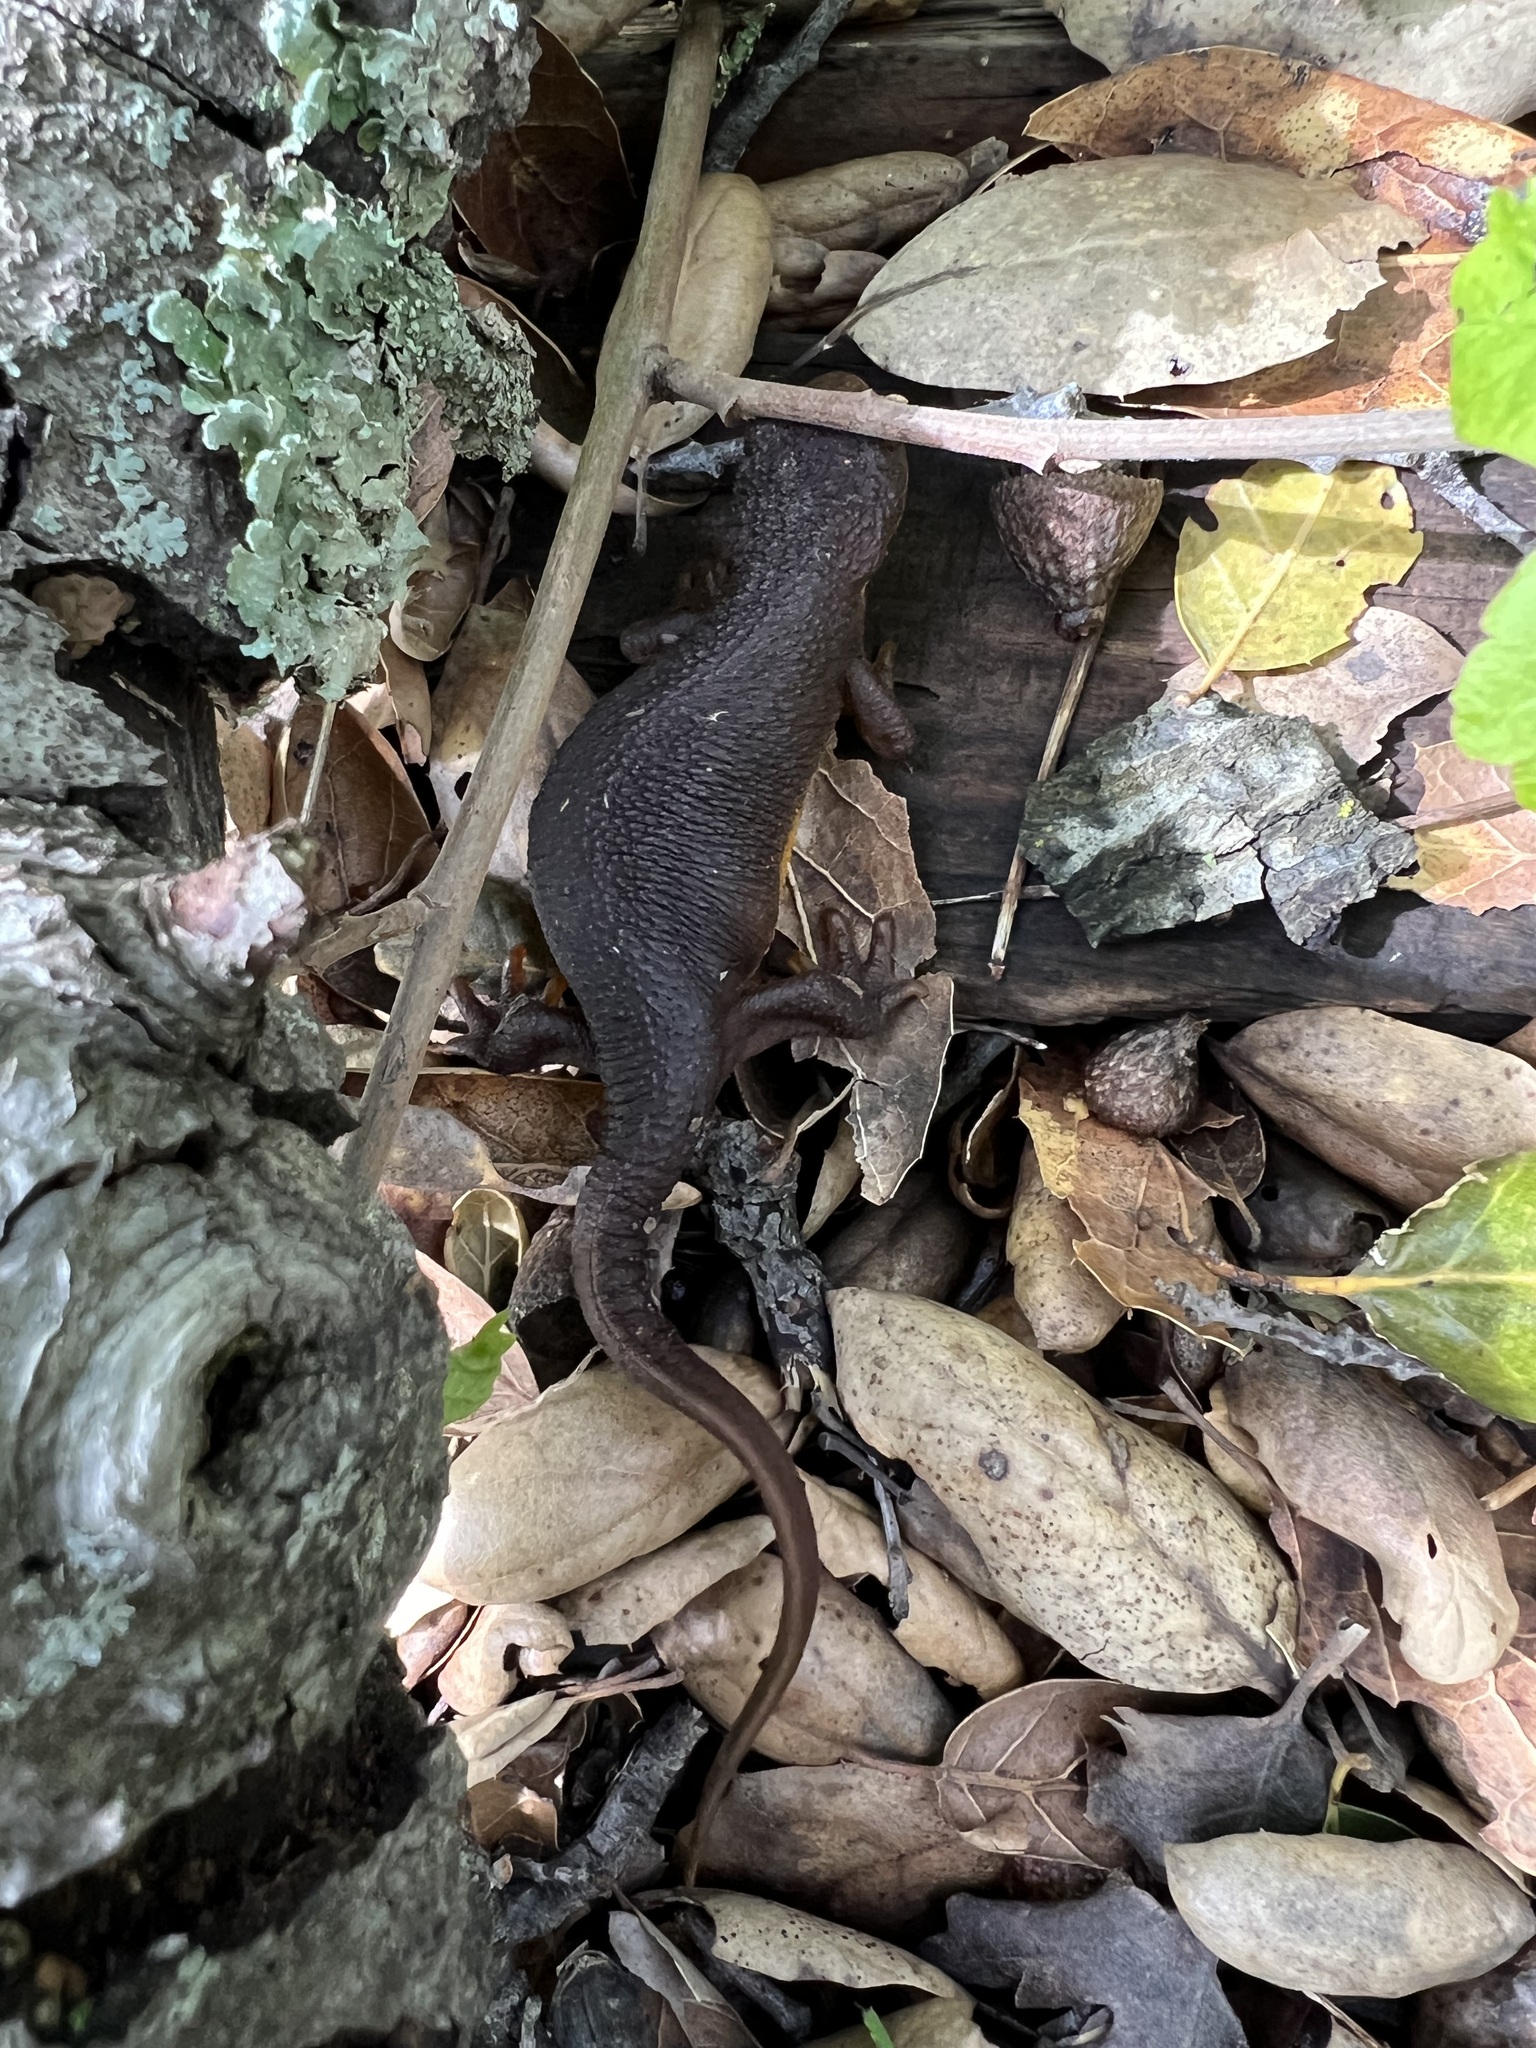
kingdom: Animalia
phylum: Chordata
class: Amphibia
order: Caudata
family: Salamandridae
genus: Taricha
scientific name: Taricha torosa
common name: California newt
